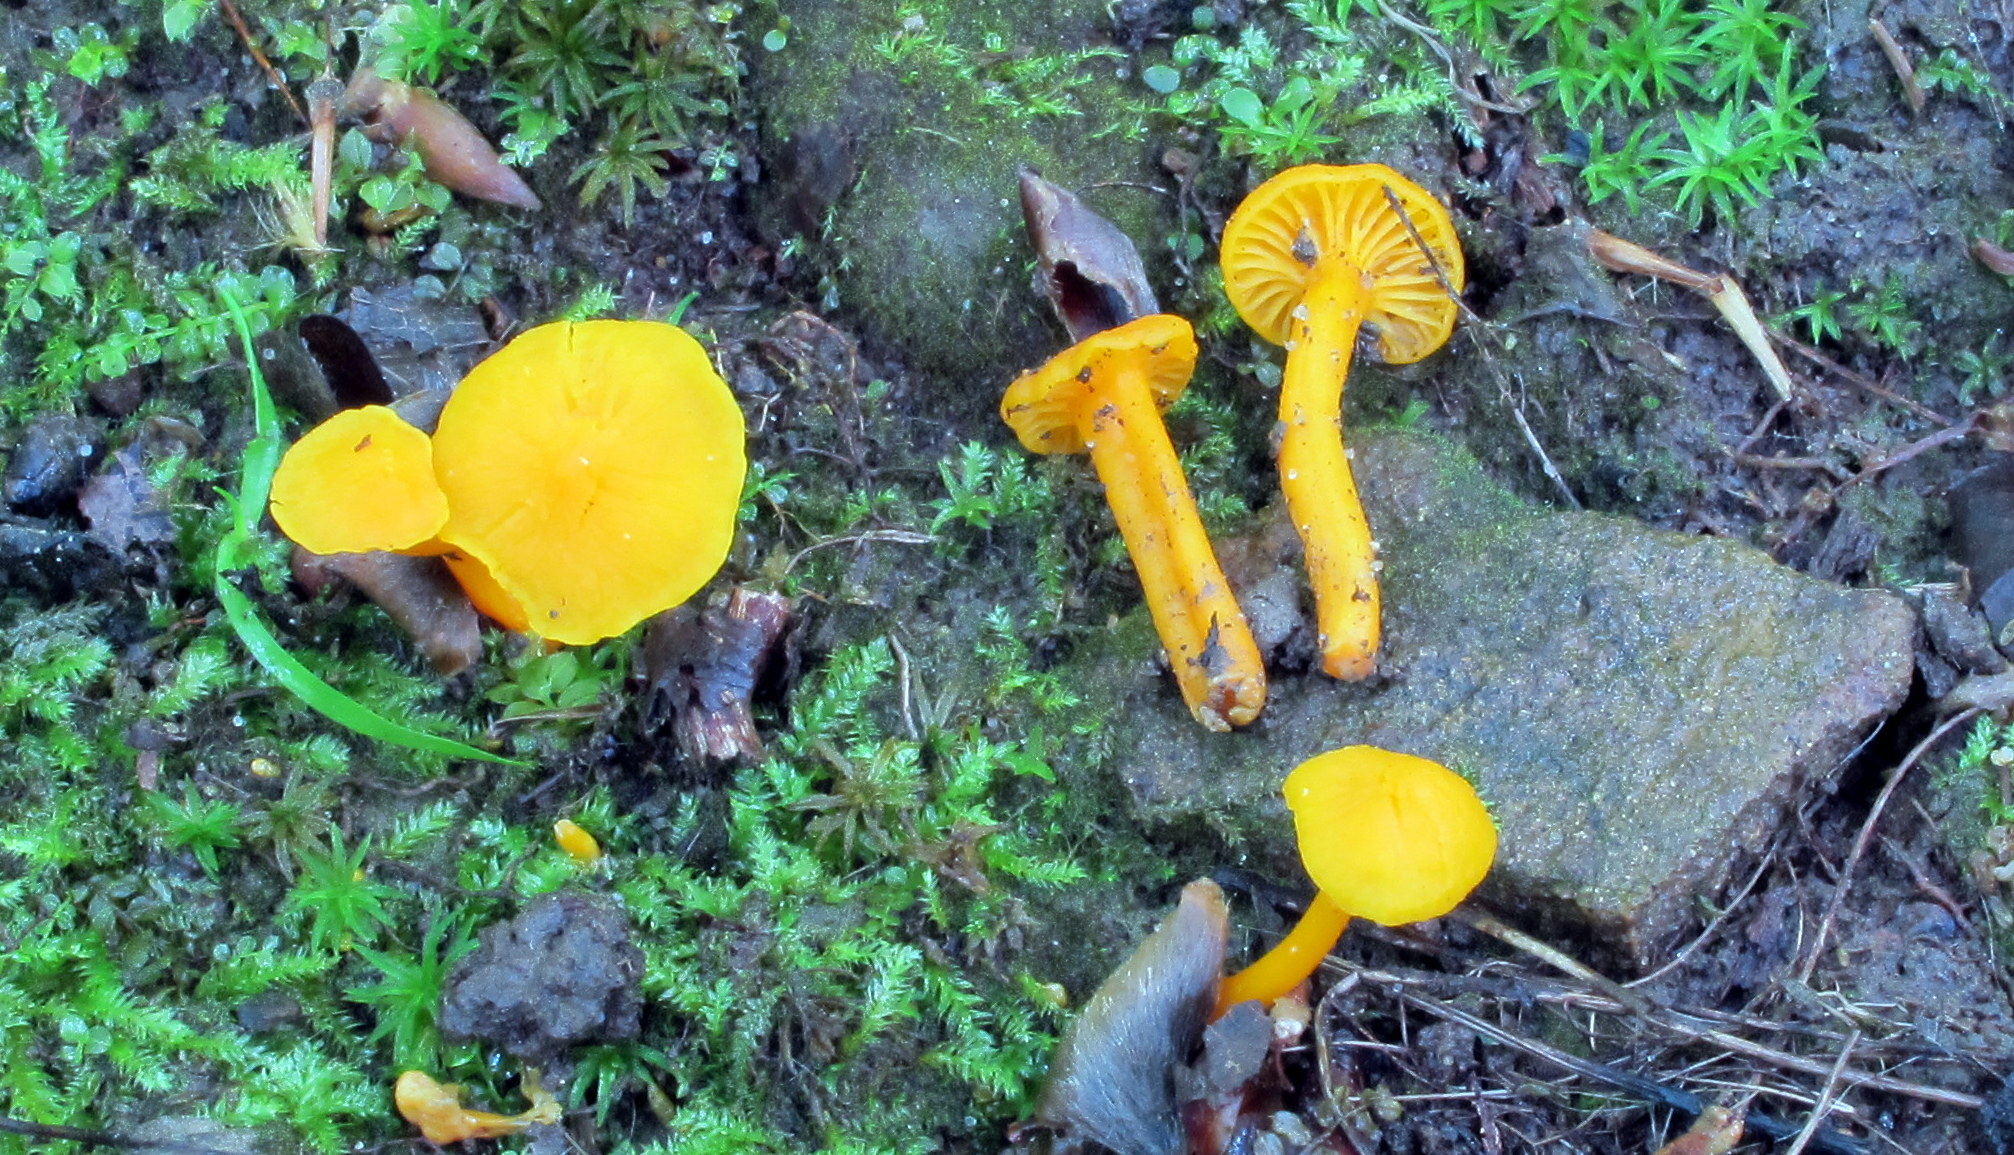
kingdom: Fungi
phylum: Basidiomycota
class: Agaricomycetes
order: Cantharellales
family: Hydnaceae
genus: Cantharellus
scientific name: Cantharellus minor
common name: Small chanterelle
